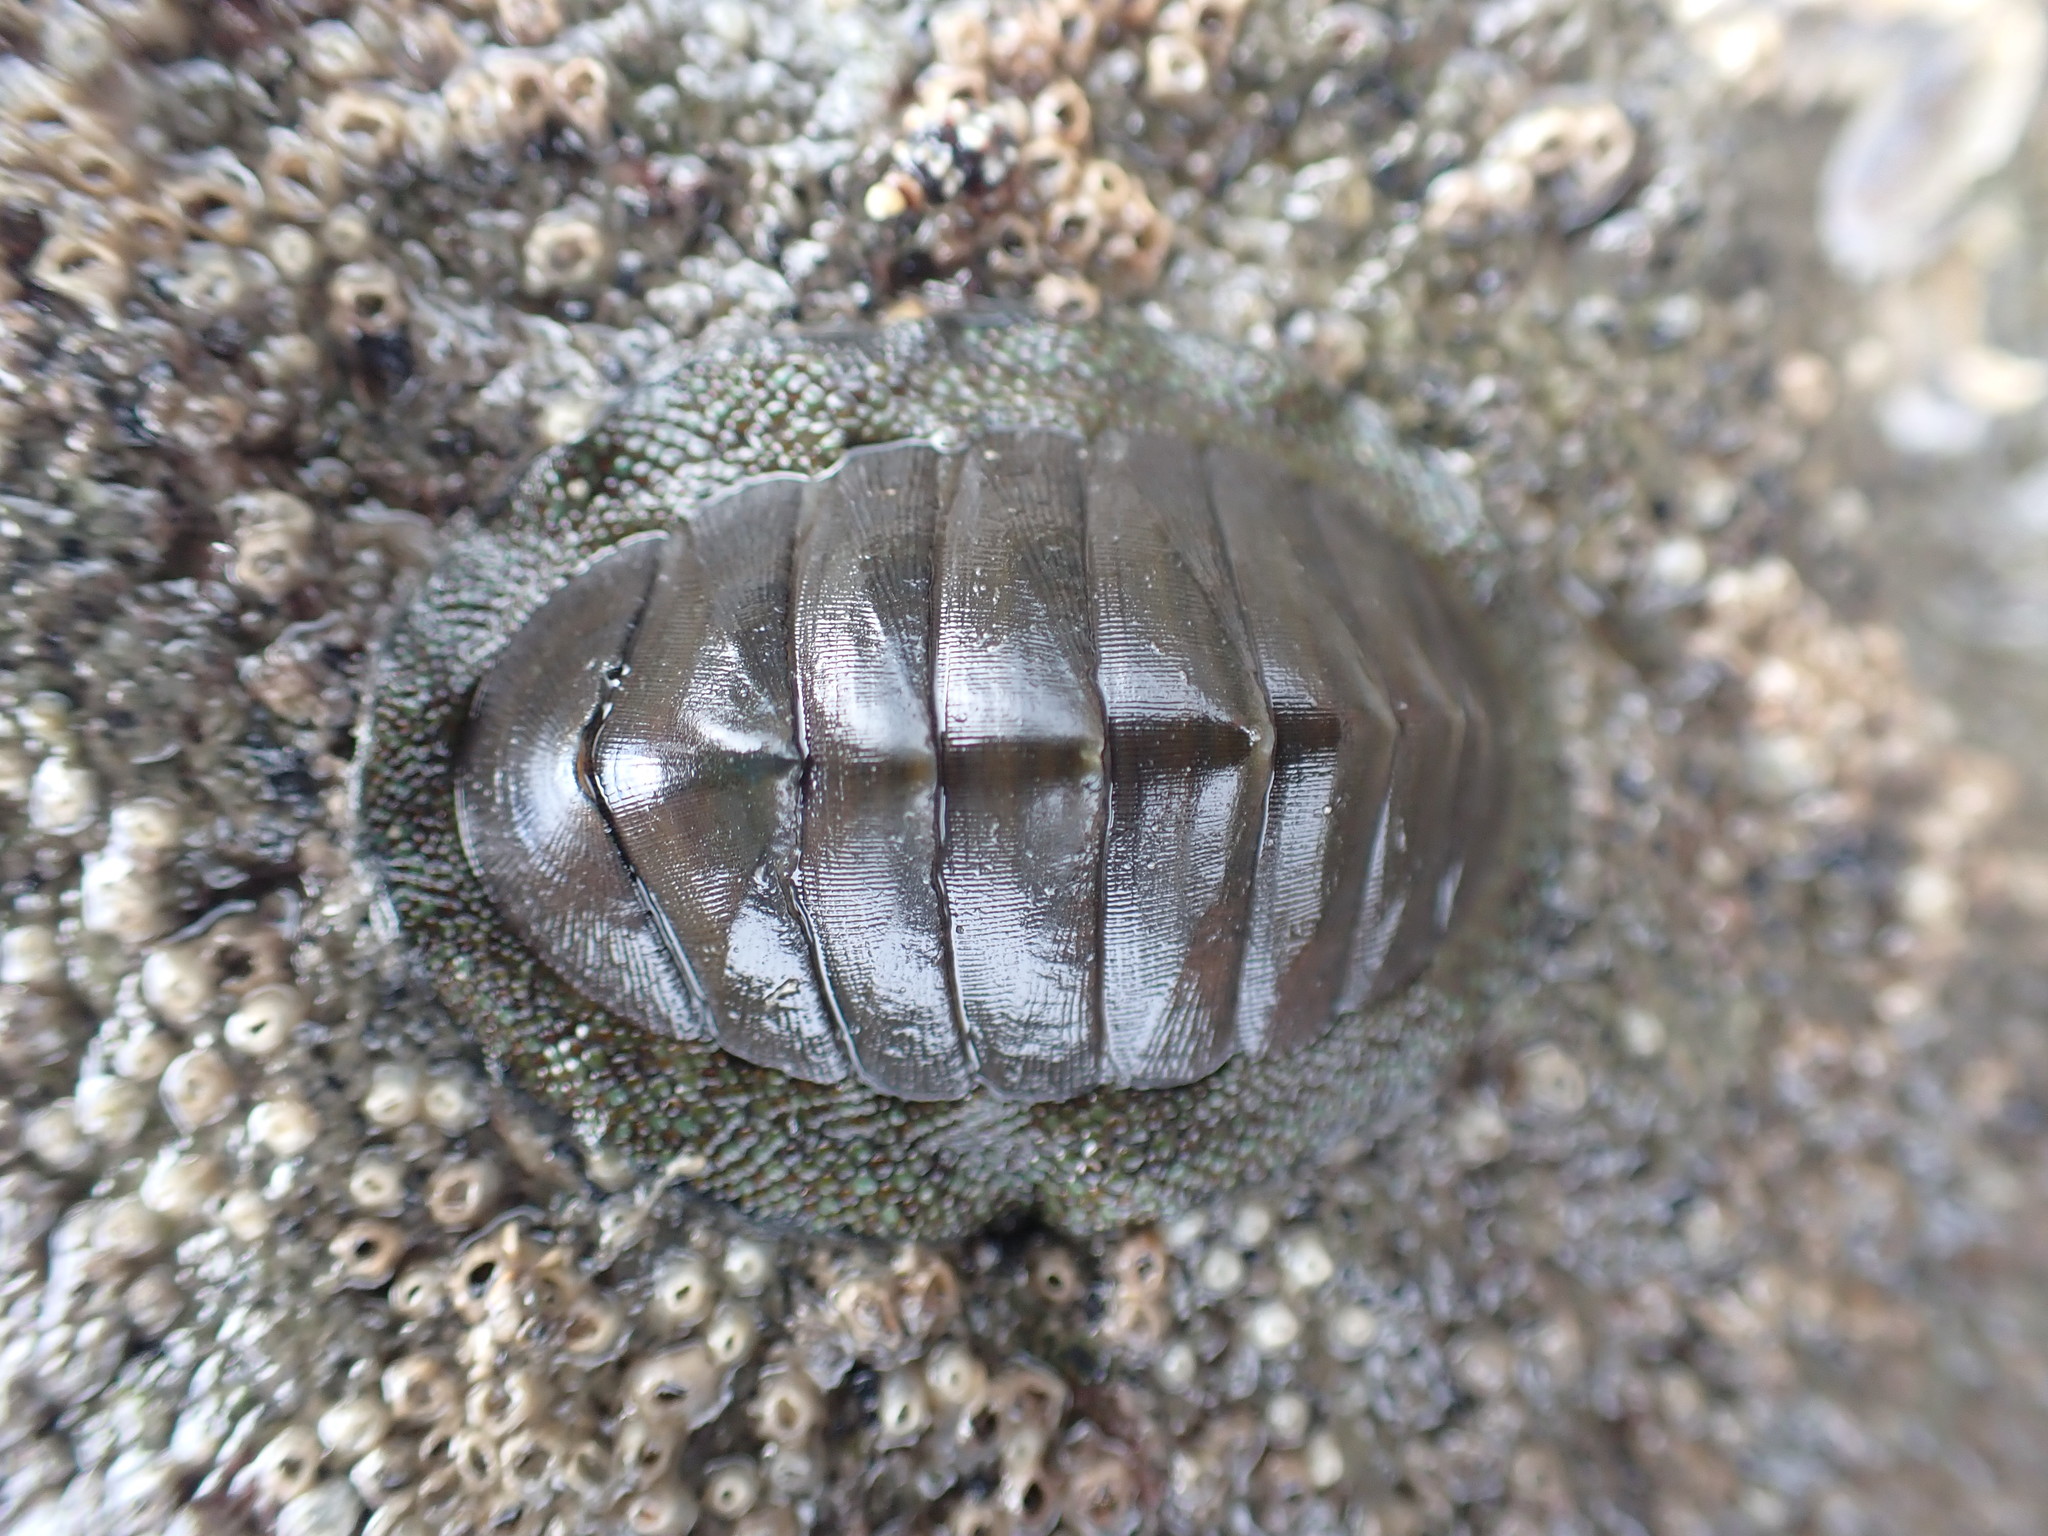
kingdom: Animalia
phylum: Mollusca
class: Polyplacophora
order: Chitonida
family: Chitonidae
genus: Chiton
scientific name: Chiton glaucus
